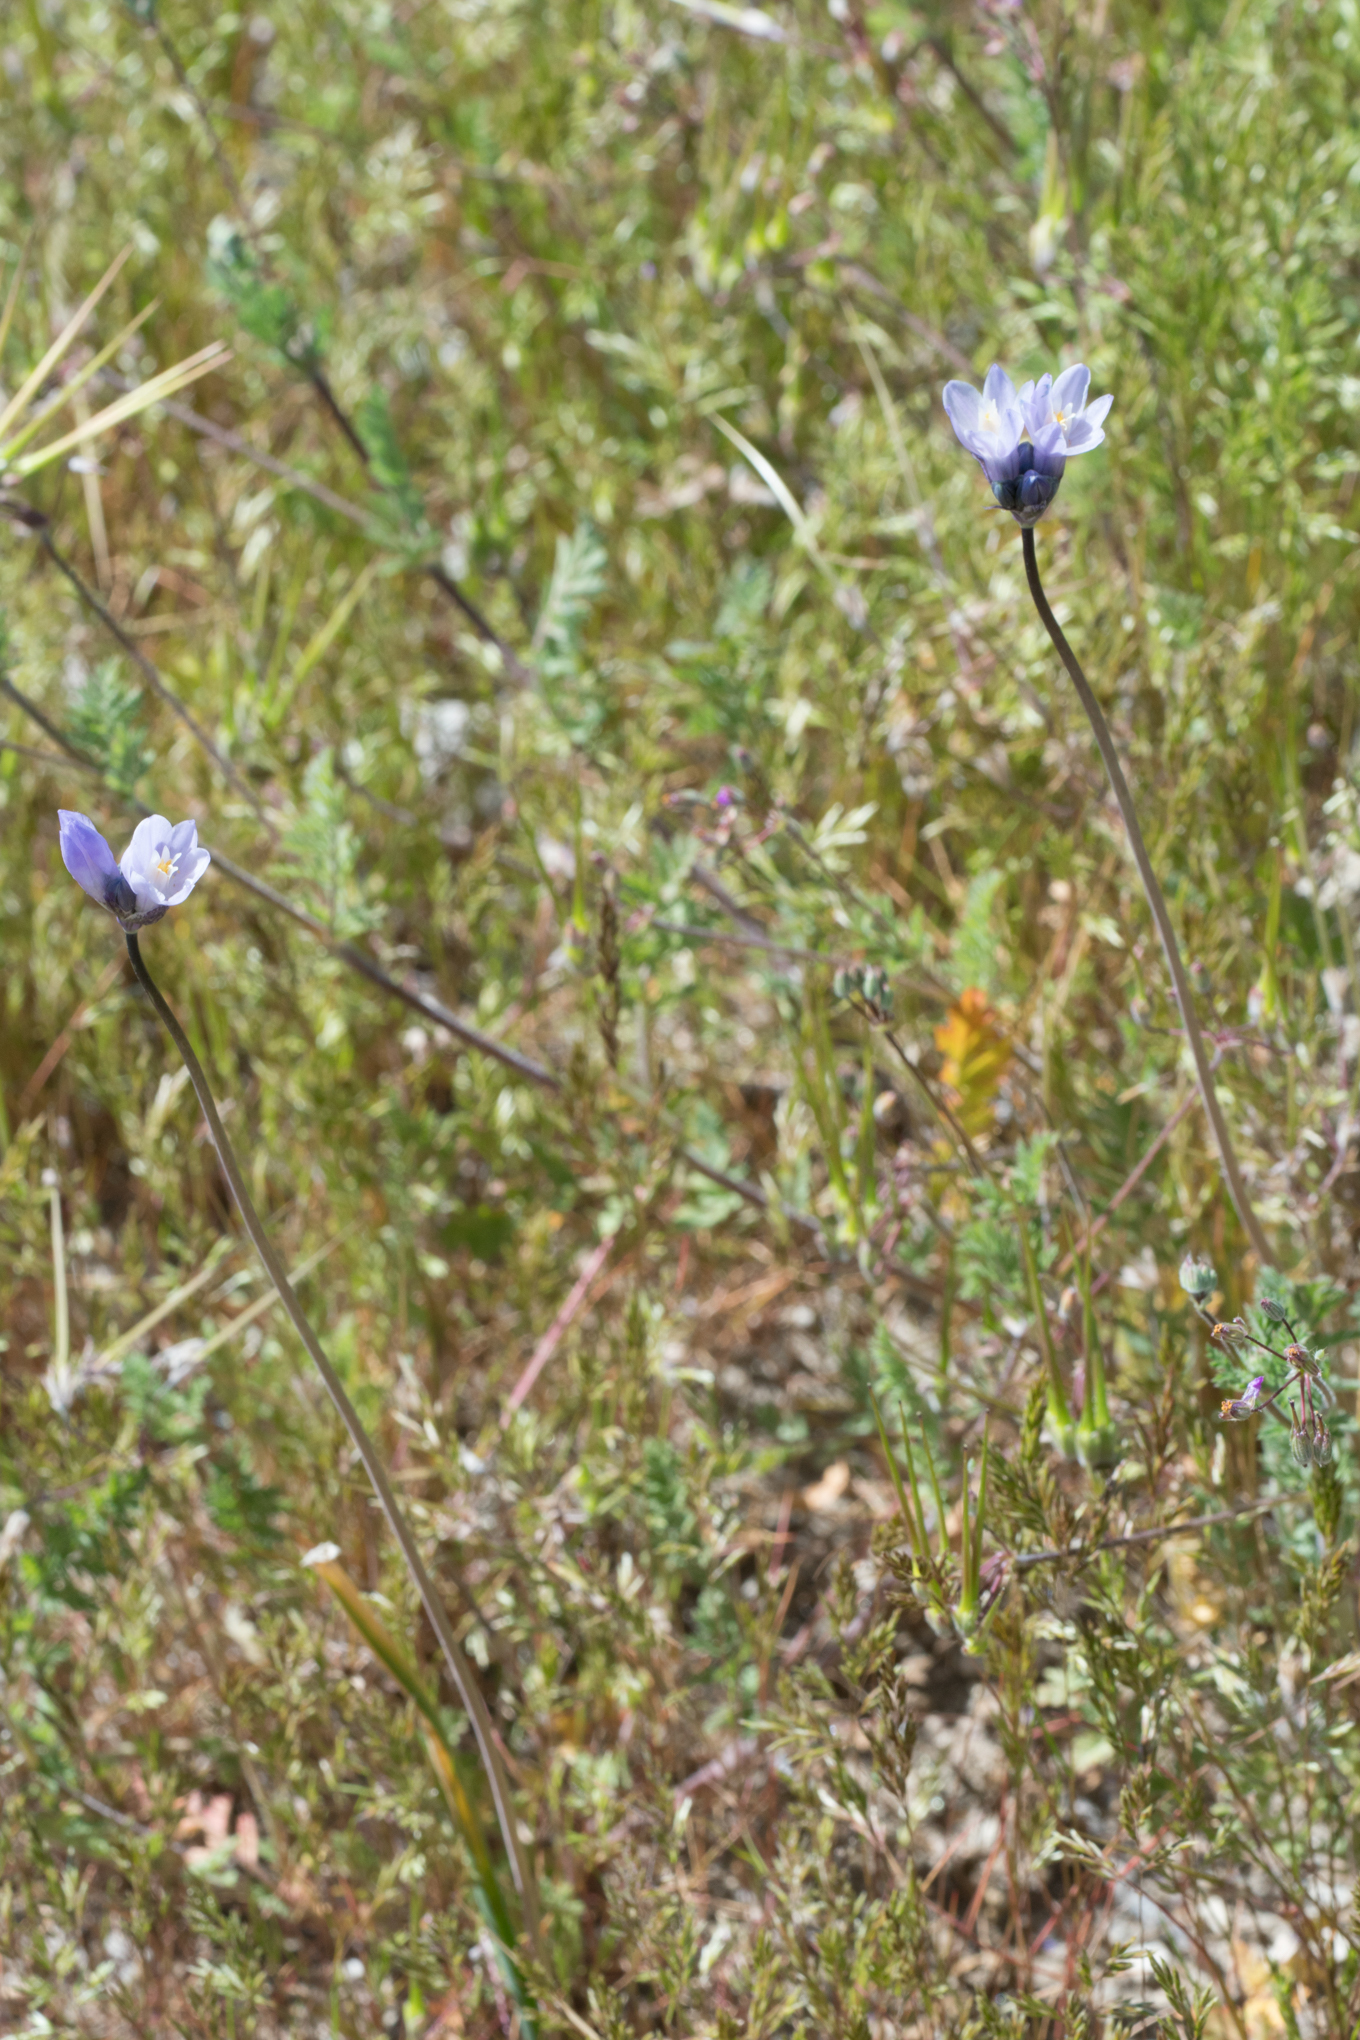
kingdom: Plantae
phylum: Tracheophyta
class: Liliopsida
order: Asparagales
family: Asparagaceae
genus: Dipterostemon
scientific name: Dipterostemon capitatus
